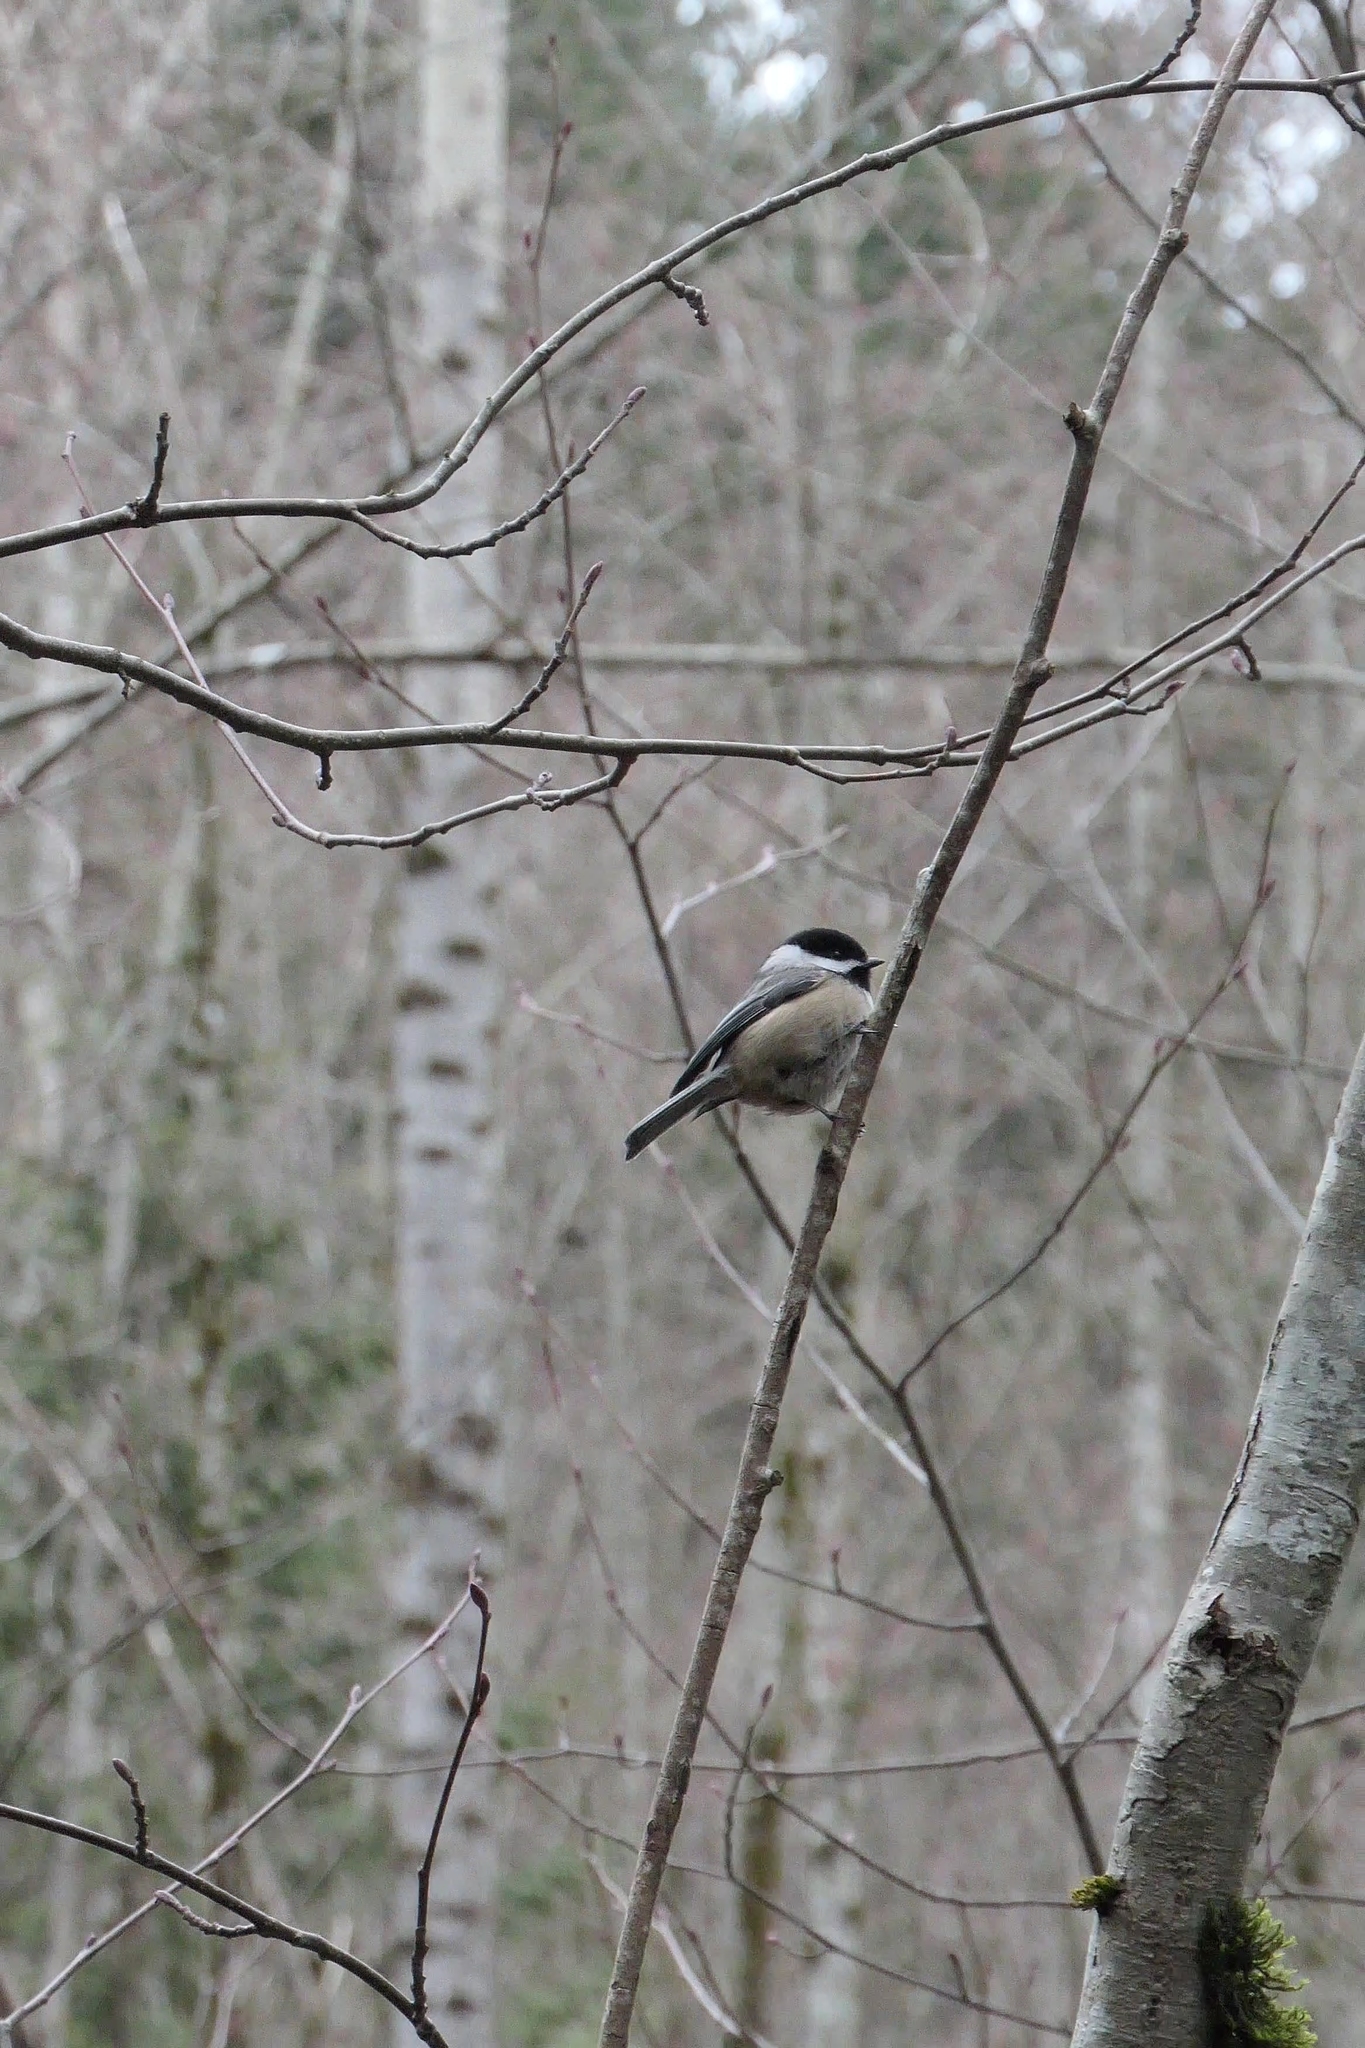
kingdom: Animalia
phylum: Chordata
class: Aves
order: Passeriformes
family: Paridae
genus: Poecile
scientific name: Poecile atricapillus
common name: Black-capped chickadee
